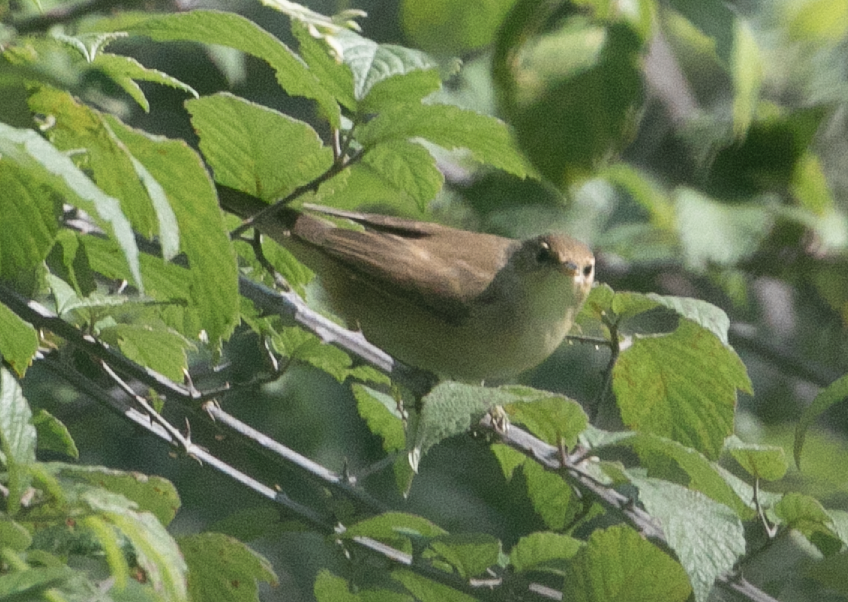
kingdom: Animalia
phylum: Chordata
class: Aves
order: Passeriformes
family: Acrocephalidae
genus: Acrocephalus
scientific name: Acrocephalus scirpaceus
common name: Eurasian reed warbler
